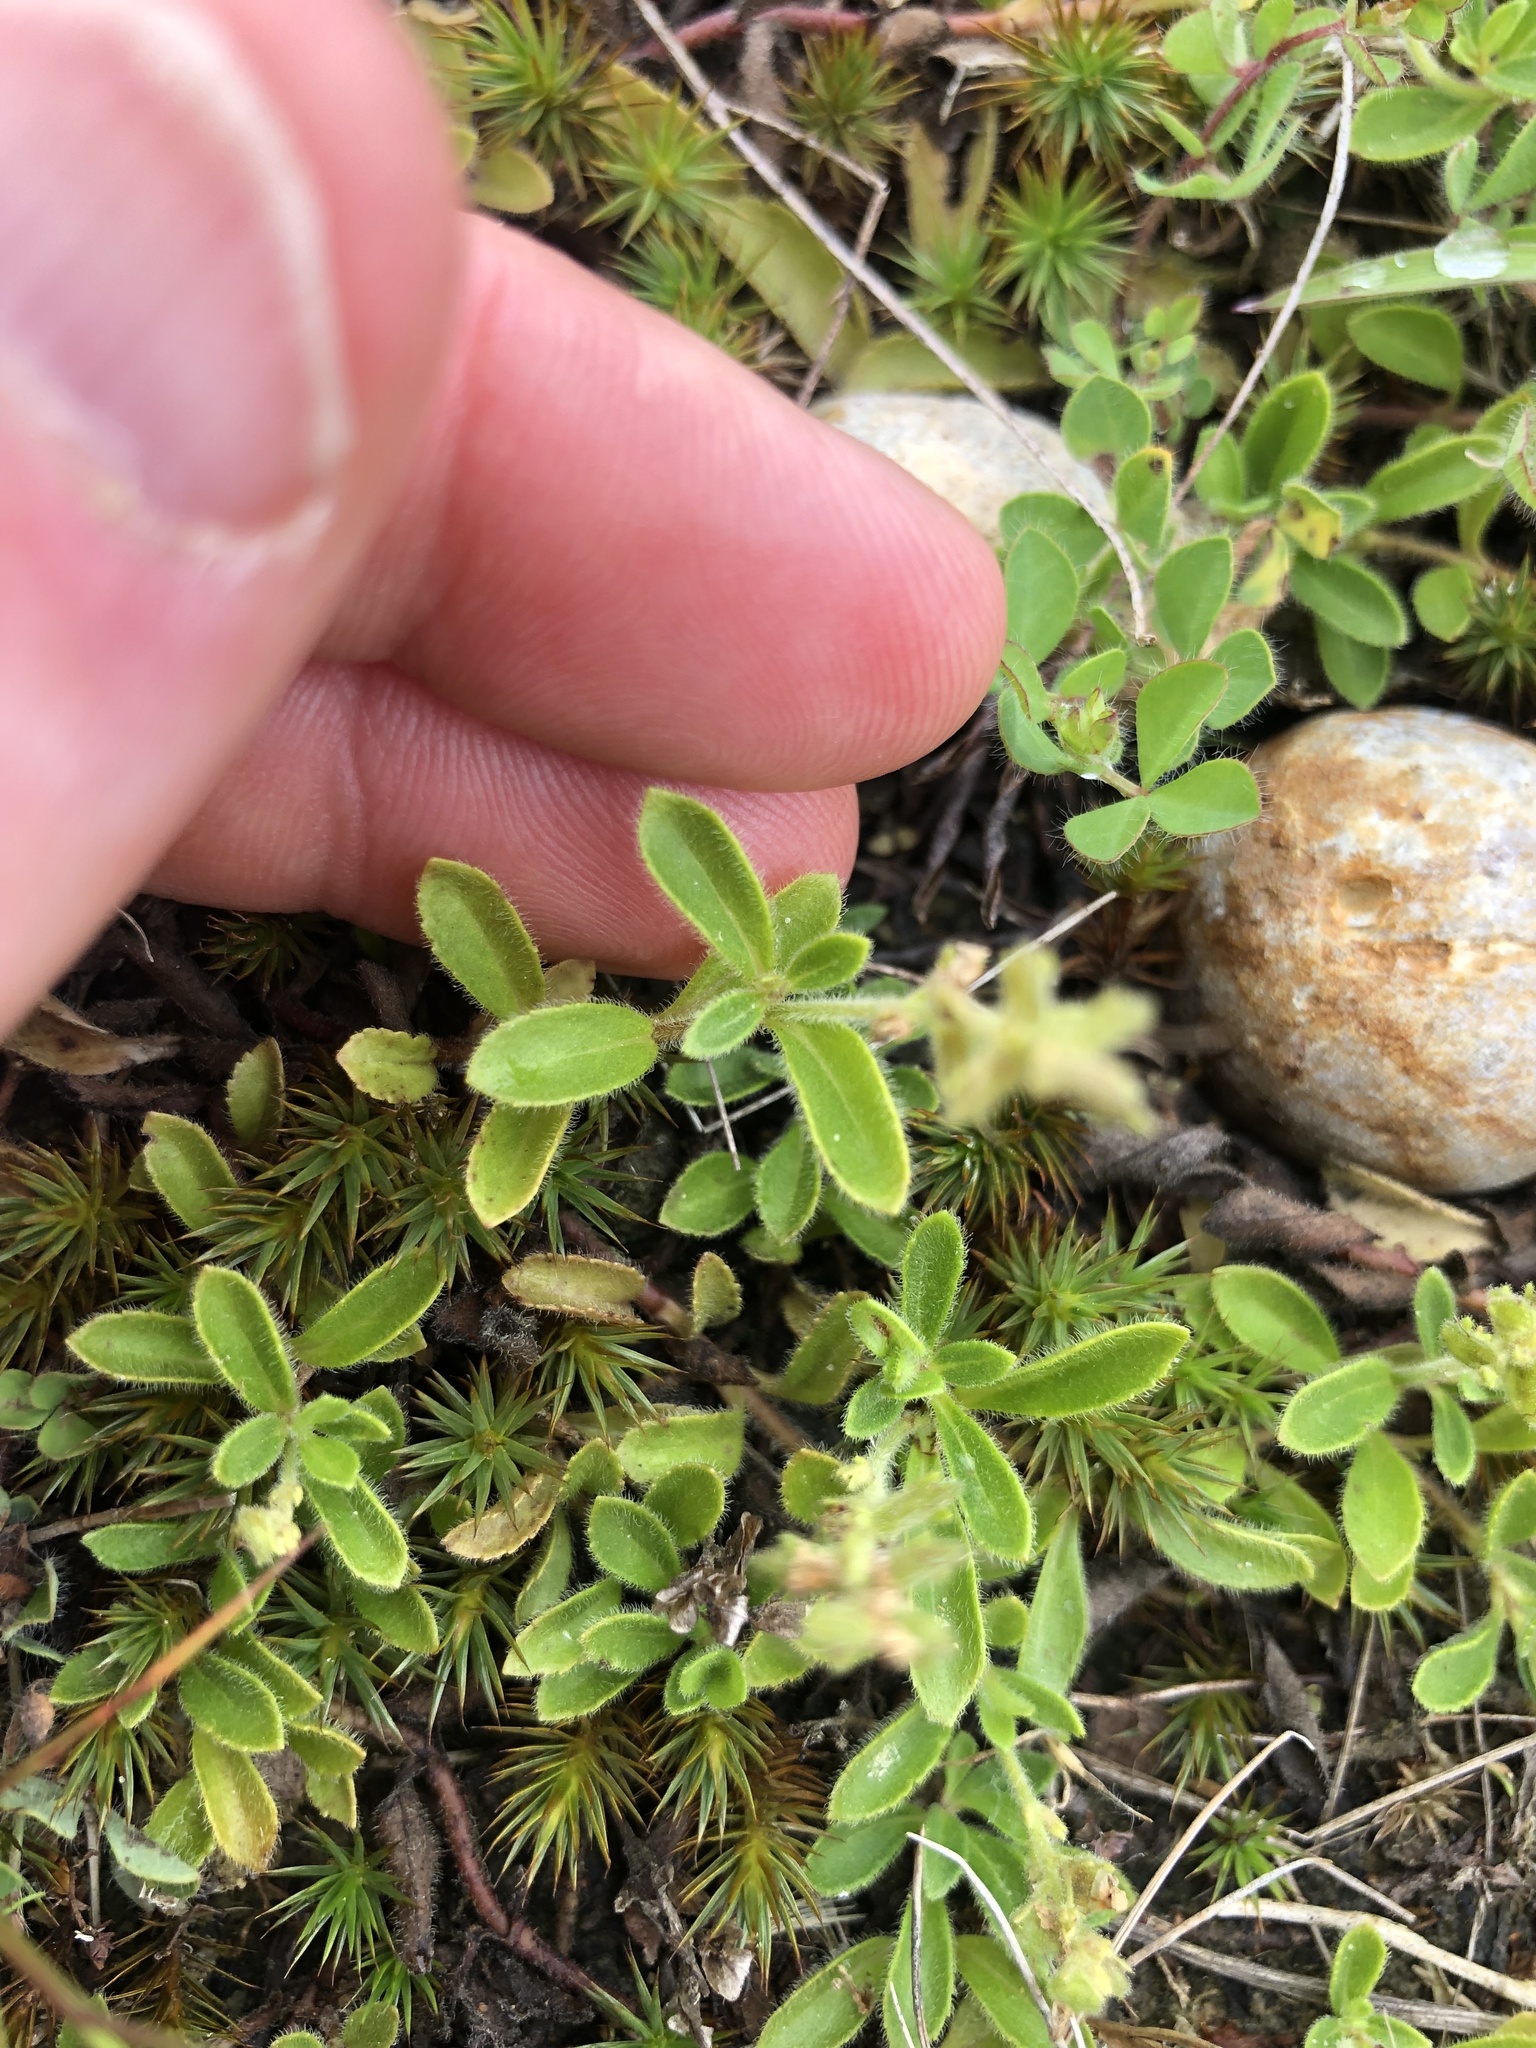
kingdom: Plantae
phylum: Tracheophyta
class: Magnoliopsida
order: Lamiales
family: Plantaginaceae
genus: Veronica
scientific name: Veronica officinalis
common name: Common speedwell
